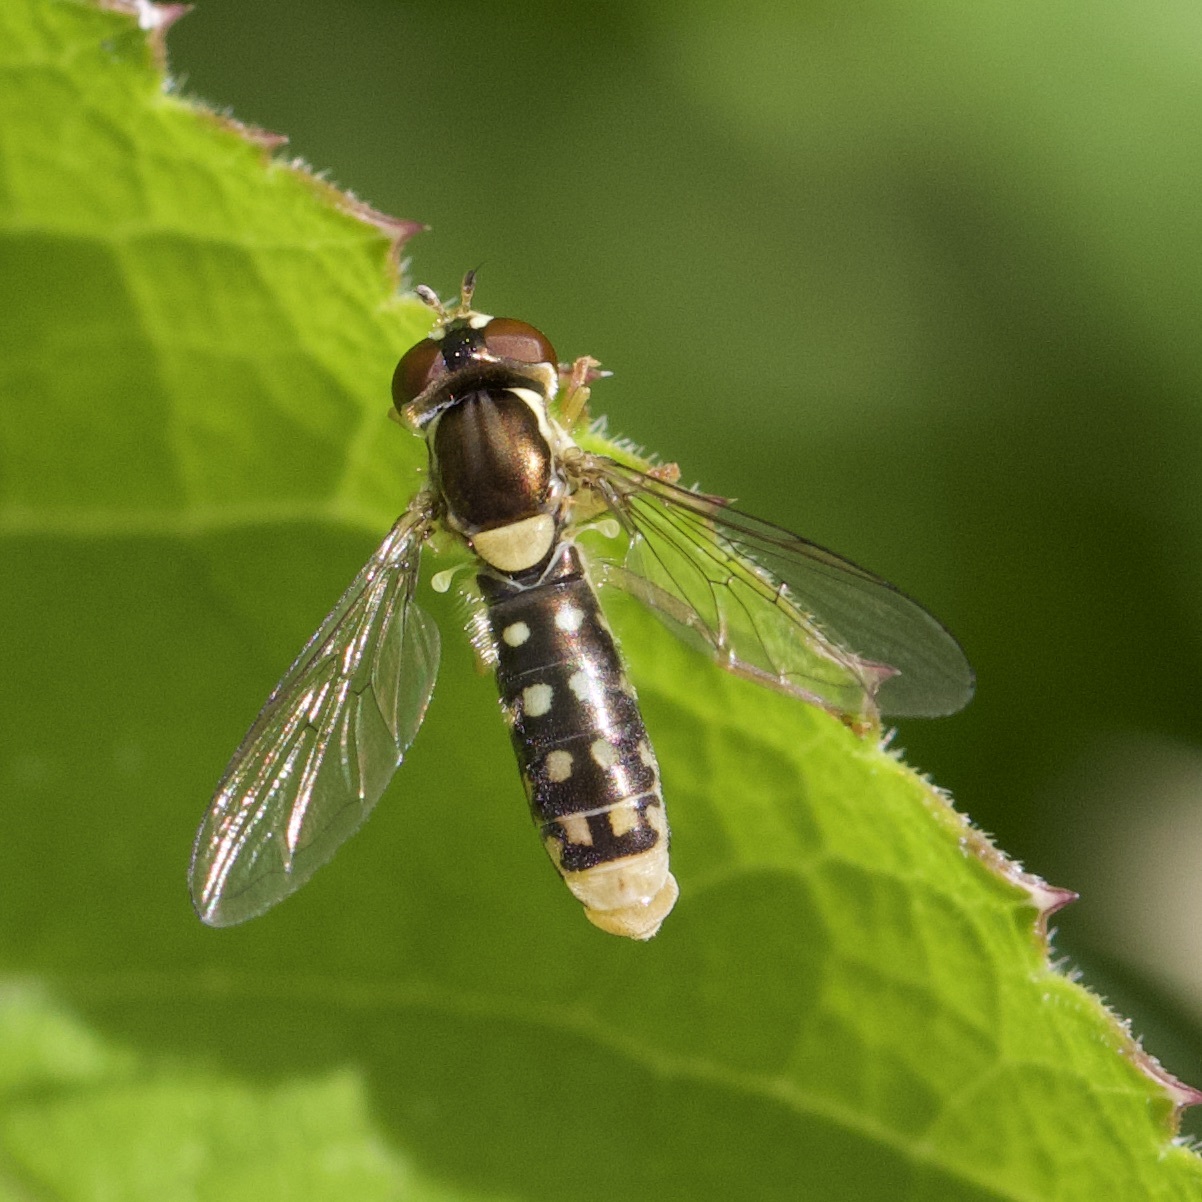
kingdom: Animalia
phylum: Arthropoda
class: Insecta
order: Diptera
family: Syrphidae
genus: Sphaerophoria
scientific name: Sphaerophoria
